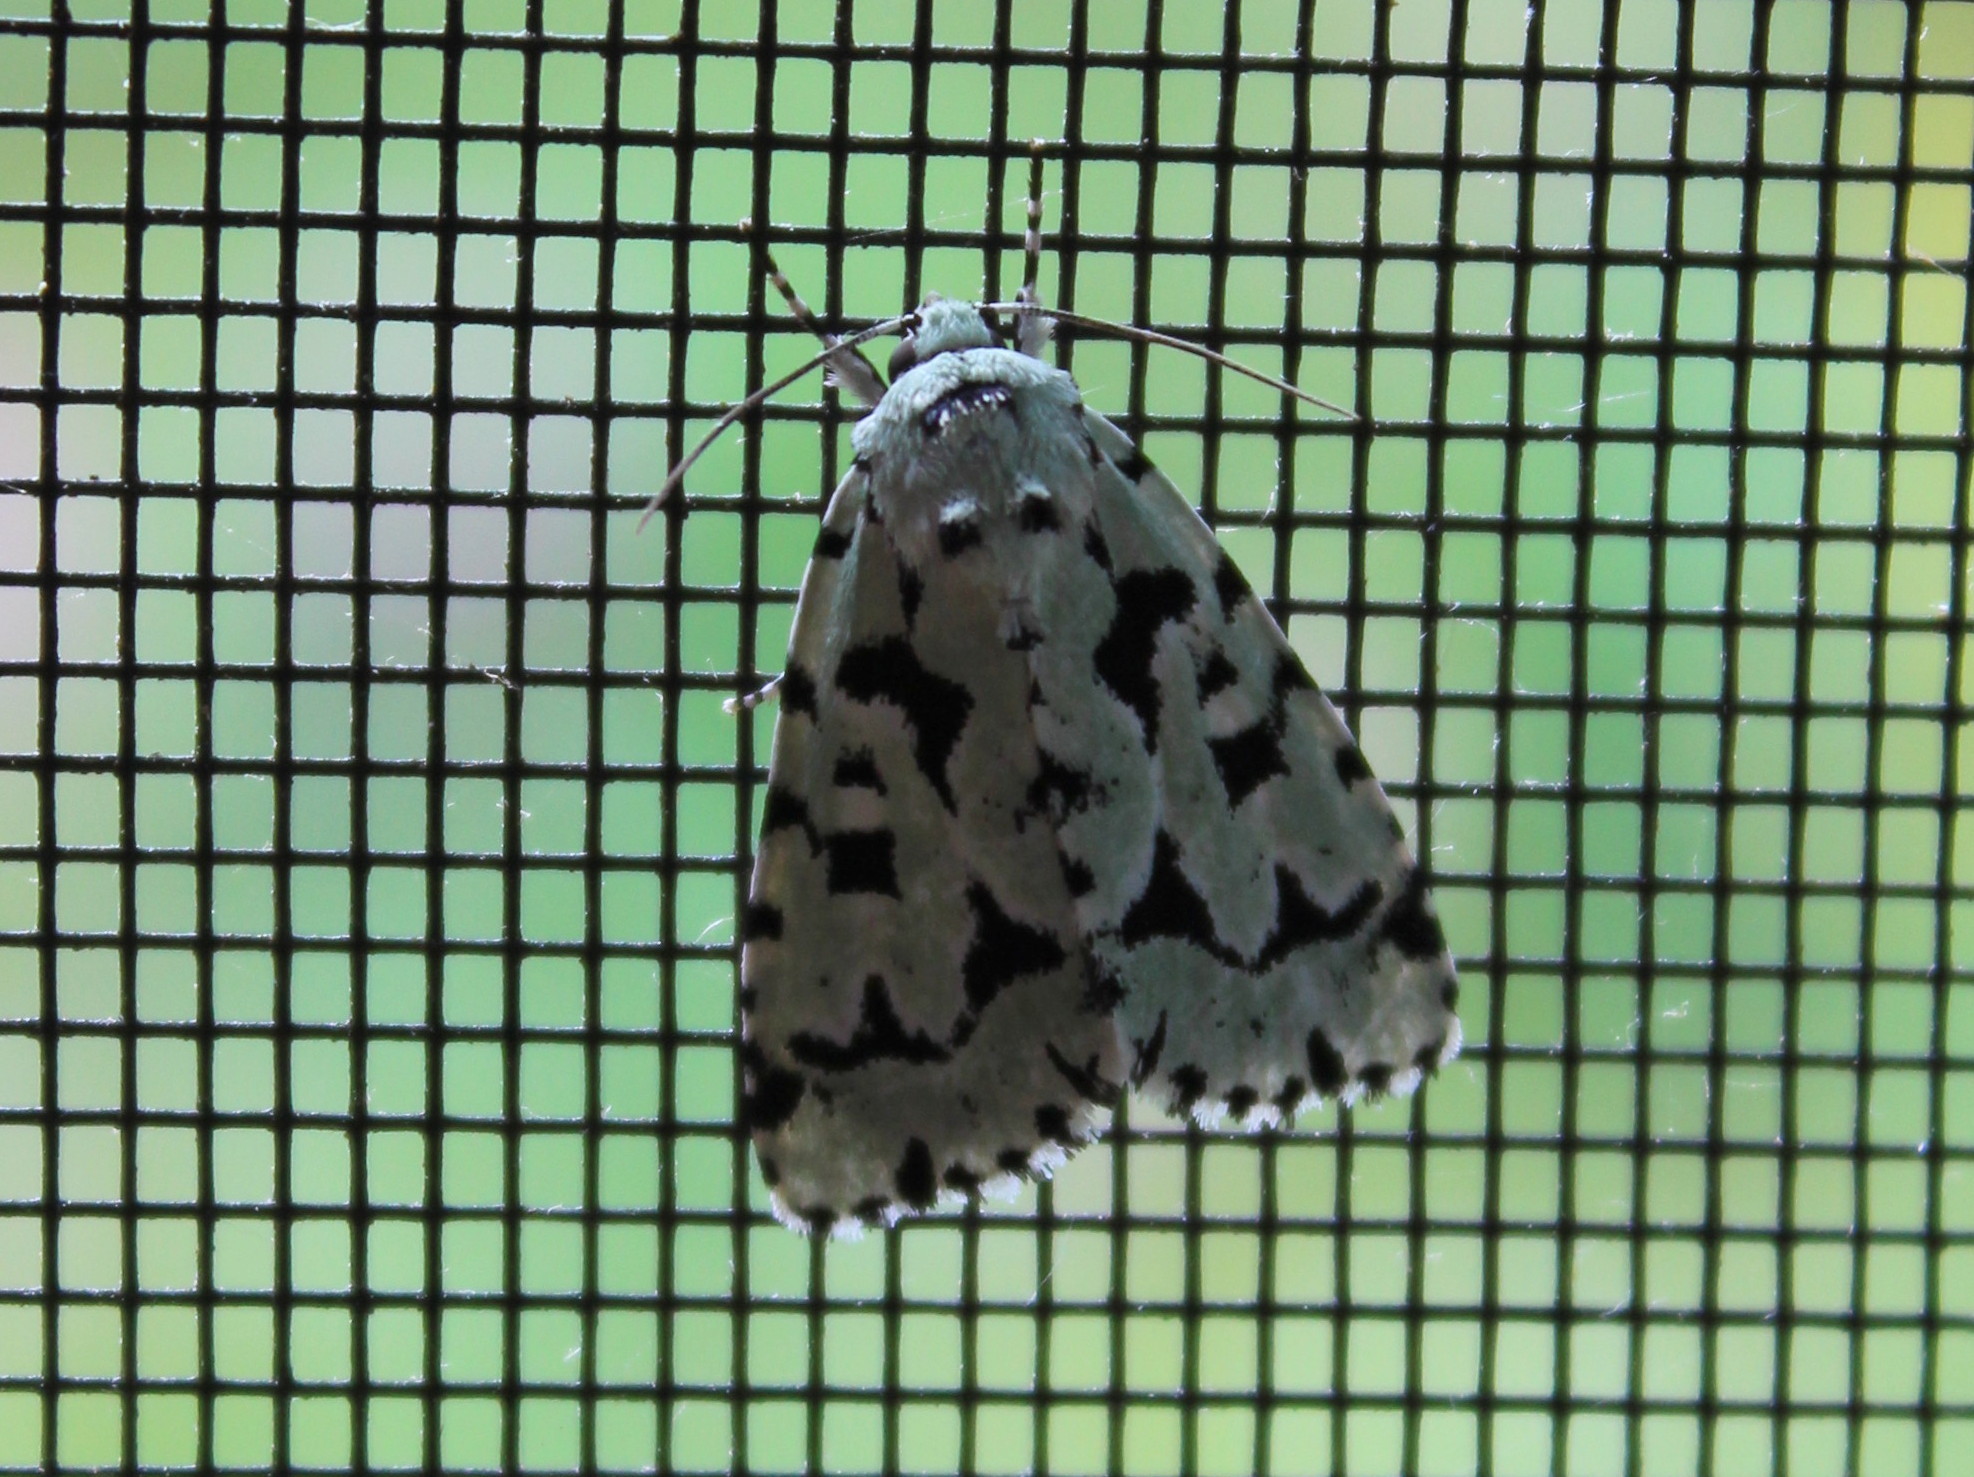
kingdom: Animalia
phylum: Arthropoda
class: Insecta
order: Lepidoptera
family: Noctuidae
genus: Acronicta
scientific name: Acronicta fallax
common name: Green marvel
